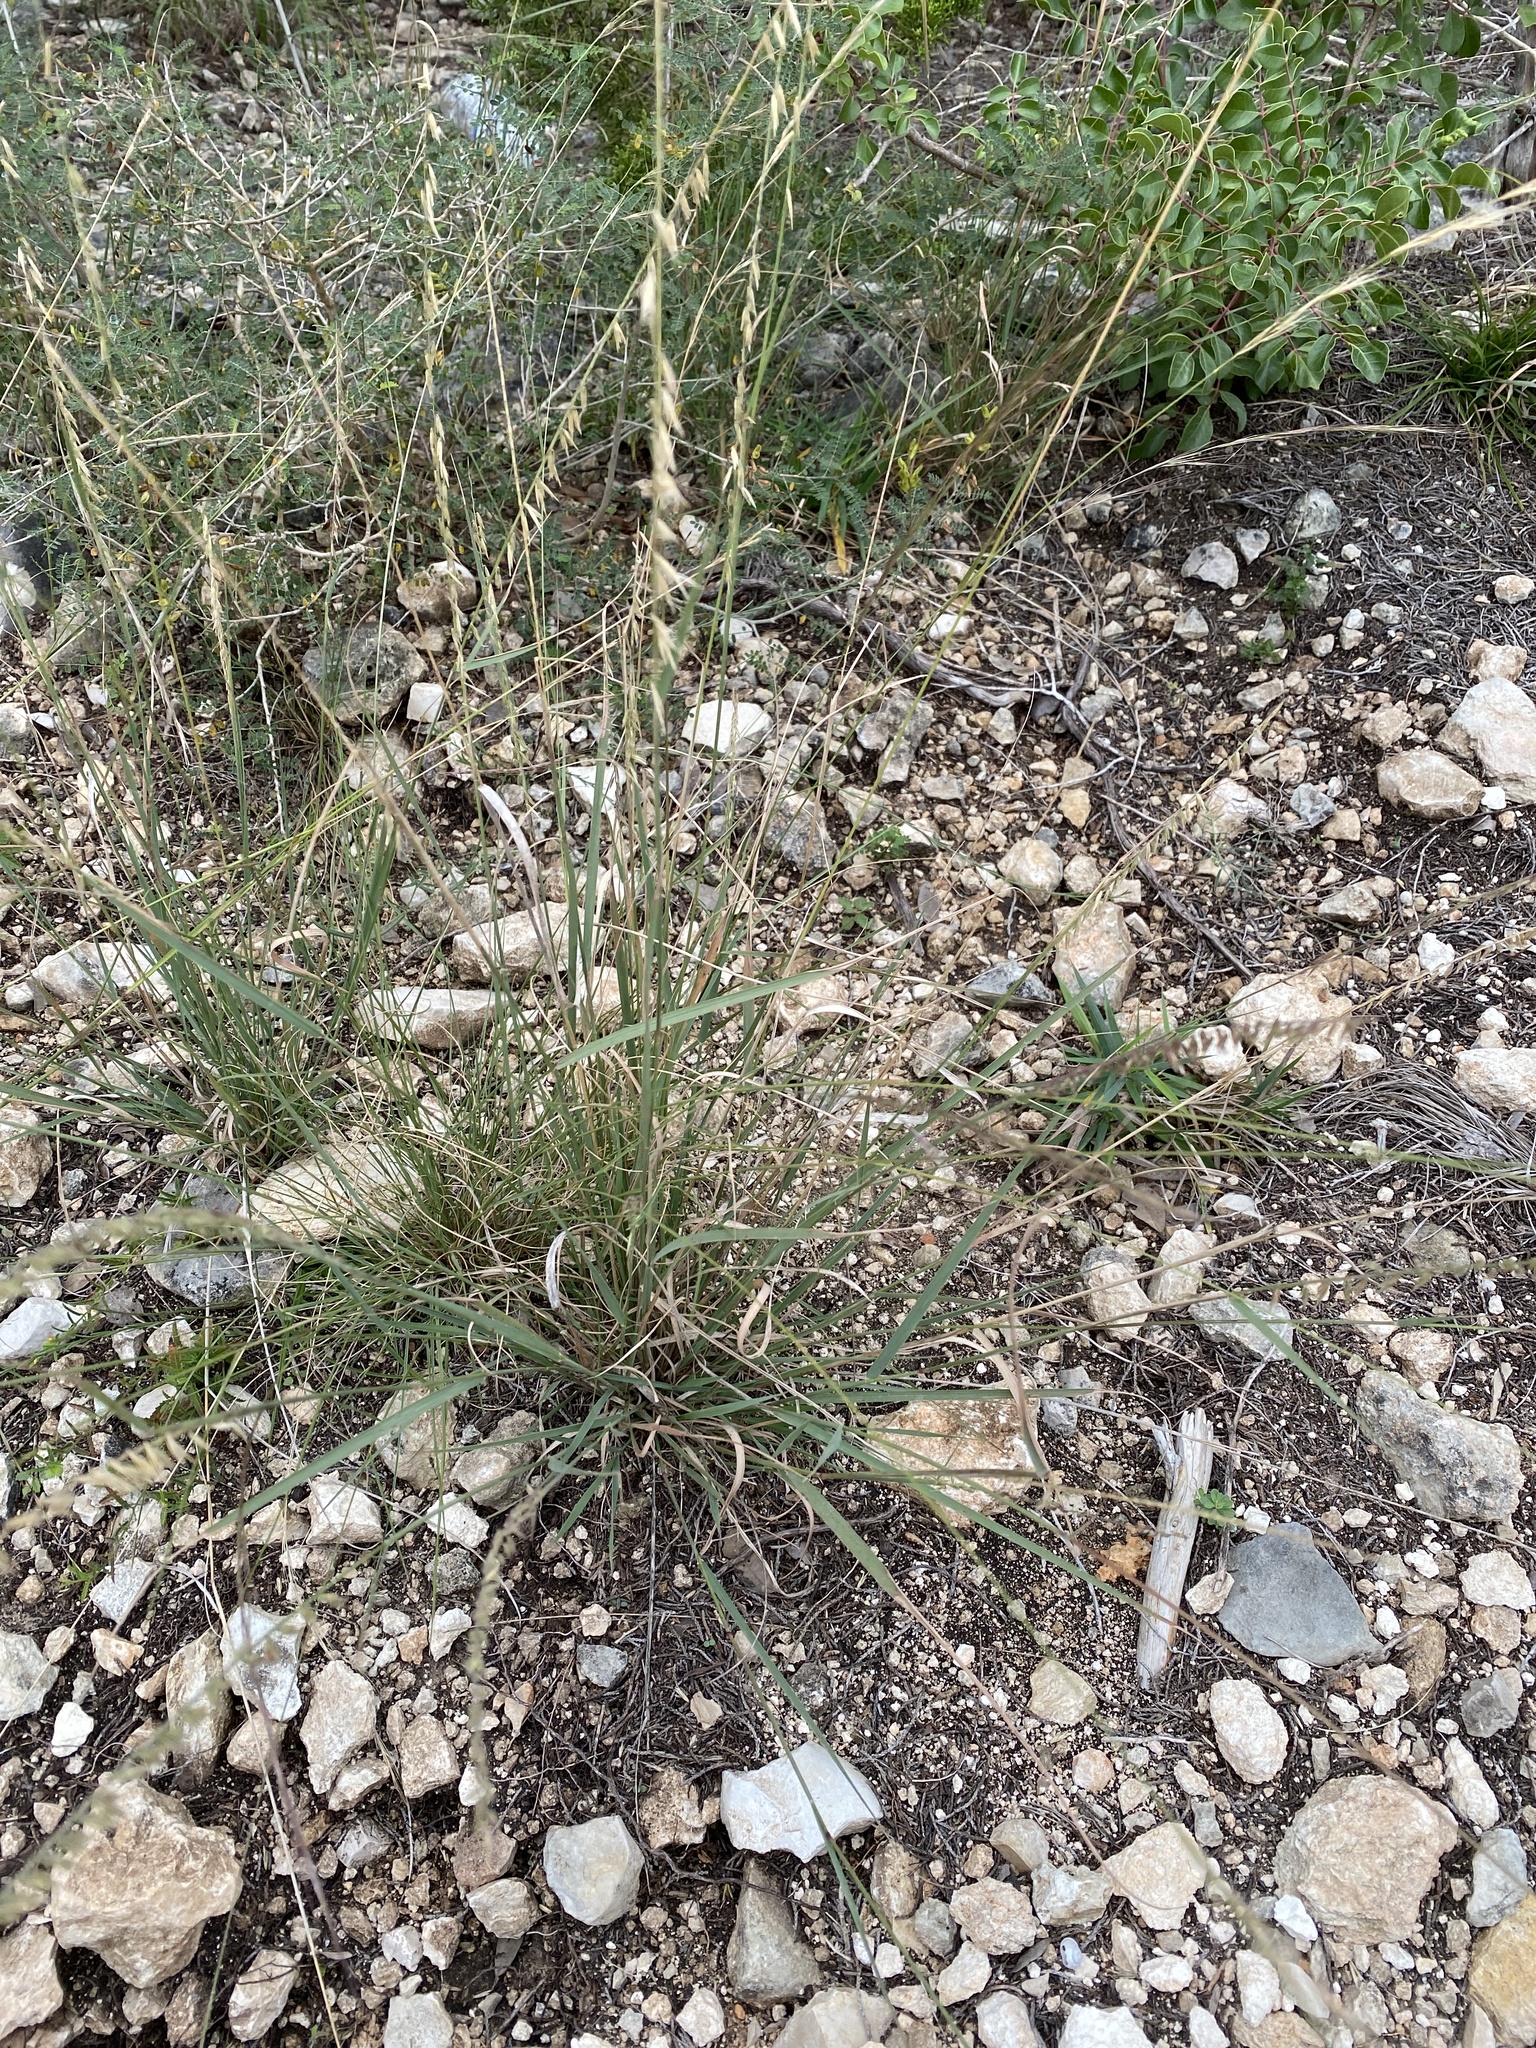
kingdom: Plantae
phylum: Tracheophyta
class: Liliopsida
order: Poales
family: Poaceae
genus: Bouteloua
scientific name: Bouteloua curtipendula
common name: Side-oats grama
